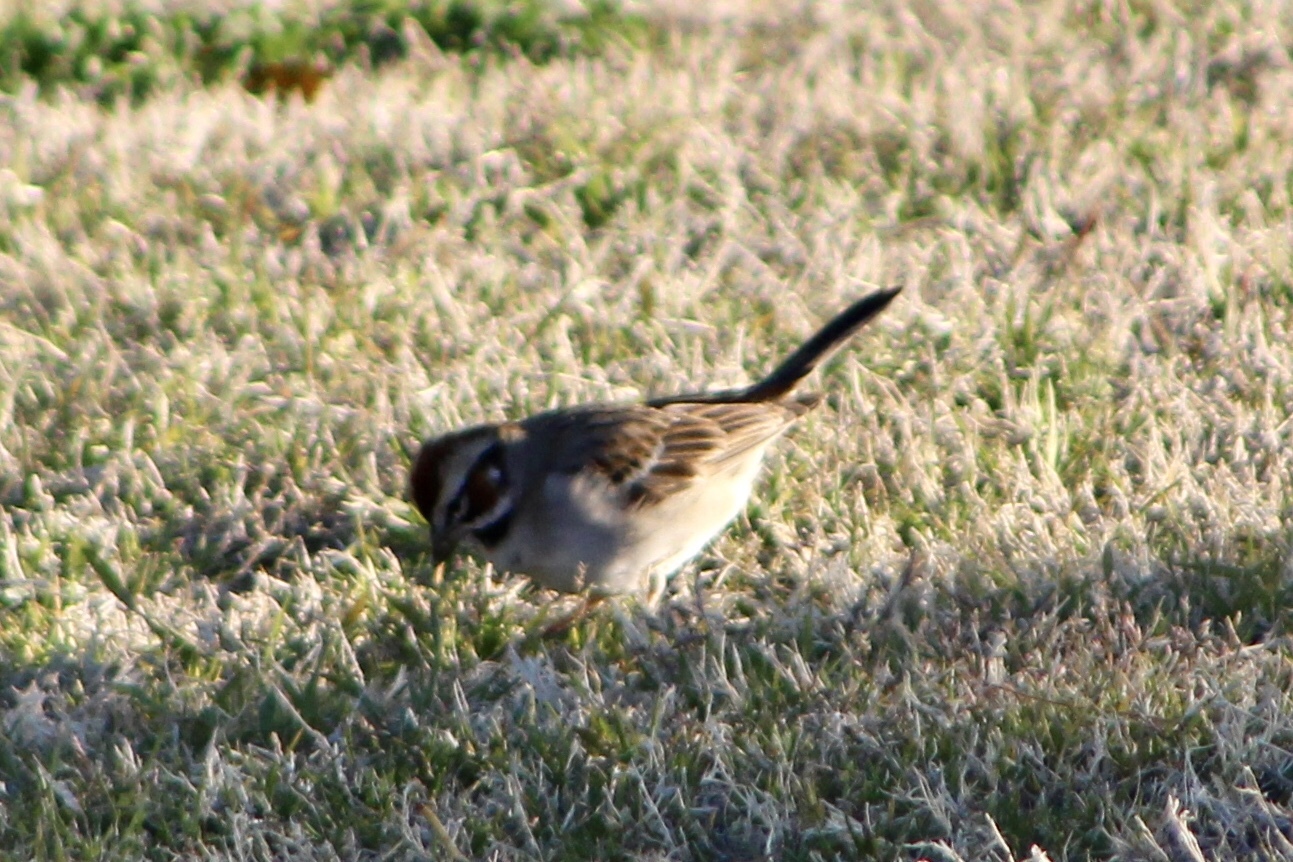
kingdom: Animalia
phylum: Chordata
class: Aves
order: Passeriformes
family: Passerellidae
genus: Chondestes
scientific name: Chondestes grammacus
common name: Lark sparrow
